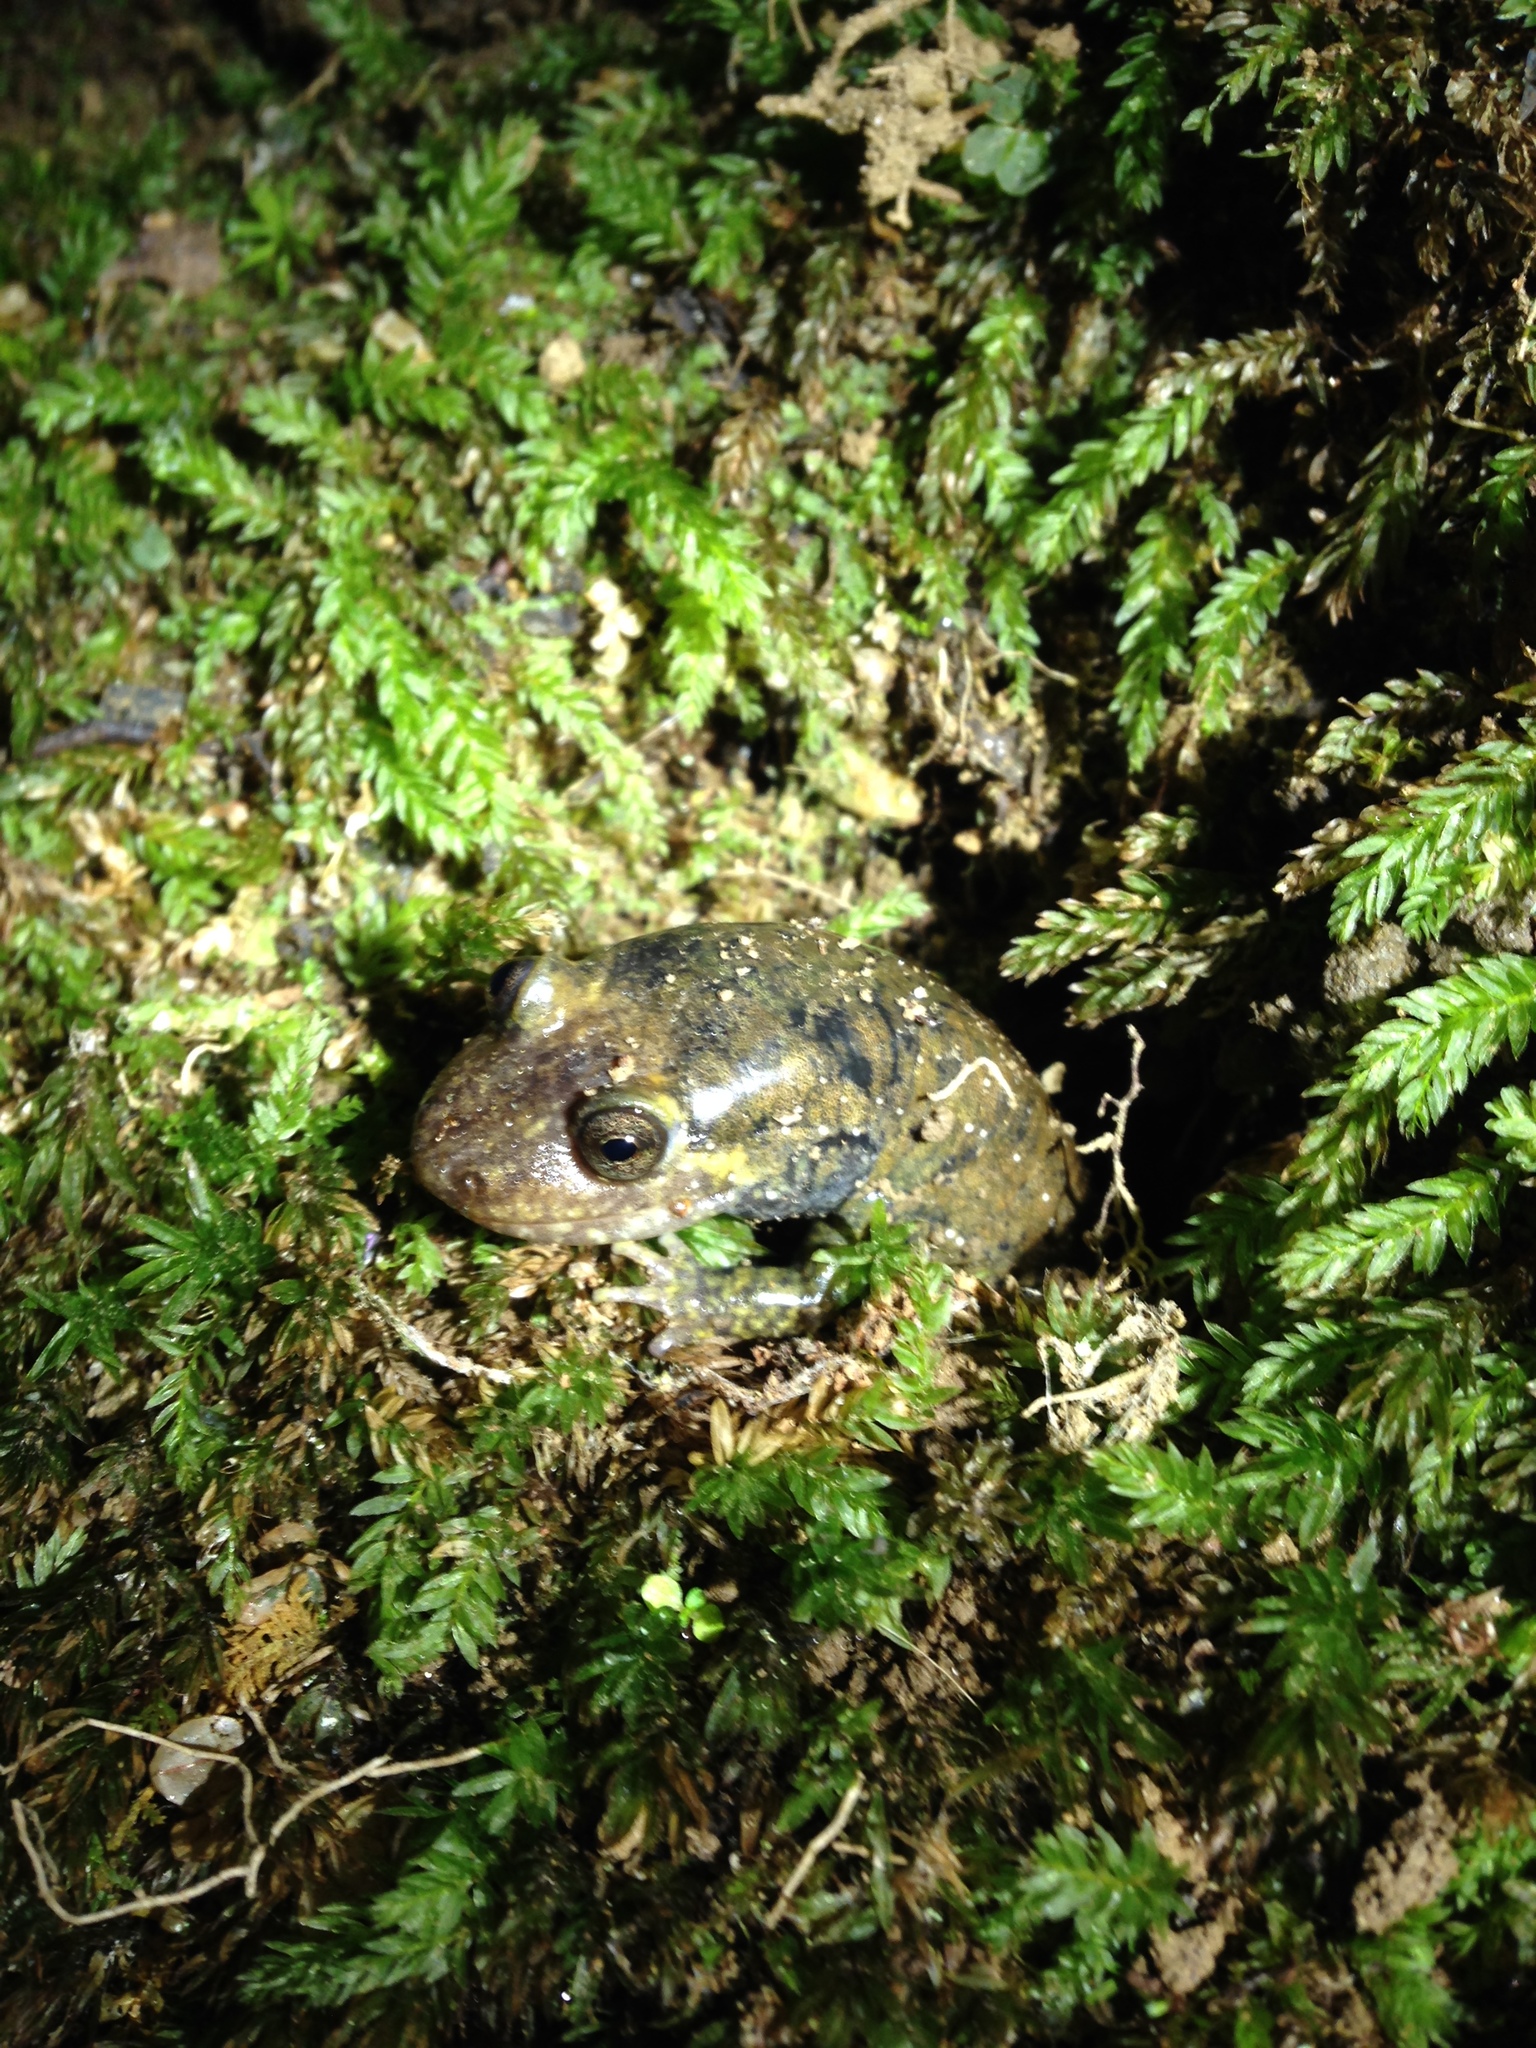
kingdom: Animalia
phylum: Chordata
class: Amphibia
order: Caudata
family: Plethodontidae
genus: Desmognathus
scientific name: Desmognathus
